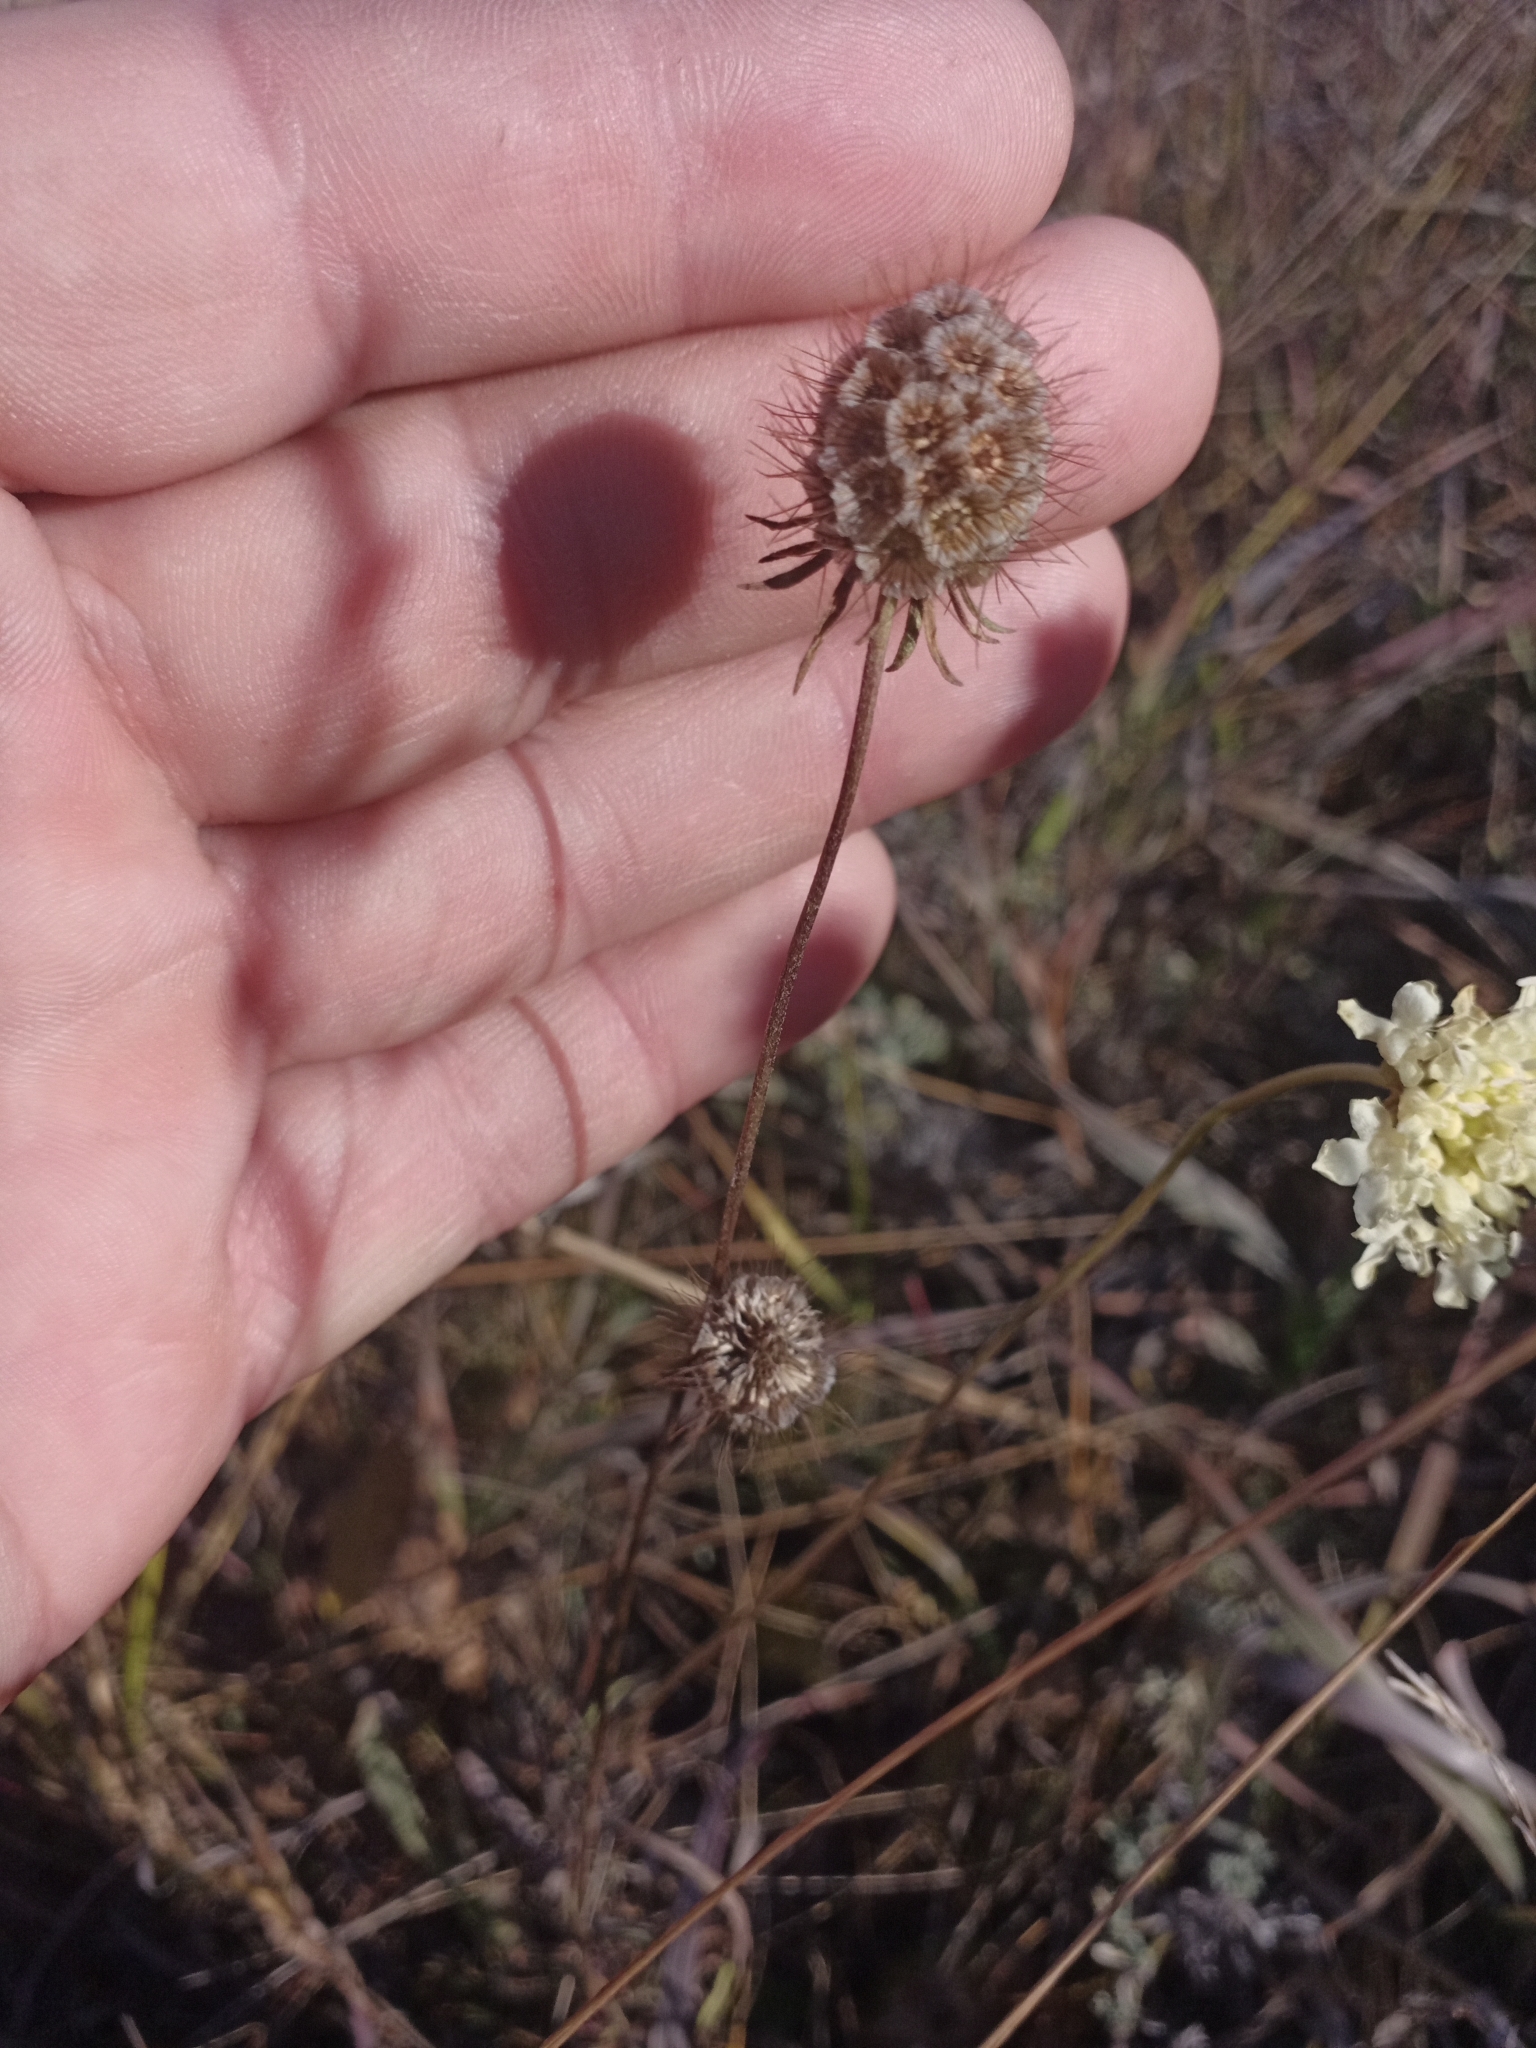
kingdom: Plantae
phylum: Tracheophyta
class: Magnoliopsida
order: Dipsacales
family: Caprifoliaceae
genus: Scabiosa
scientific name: Scabiosa ochroleuca
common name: Cream pincushions
